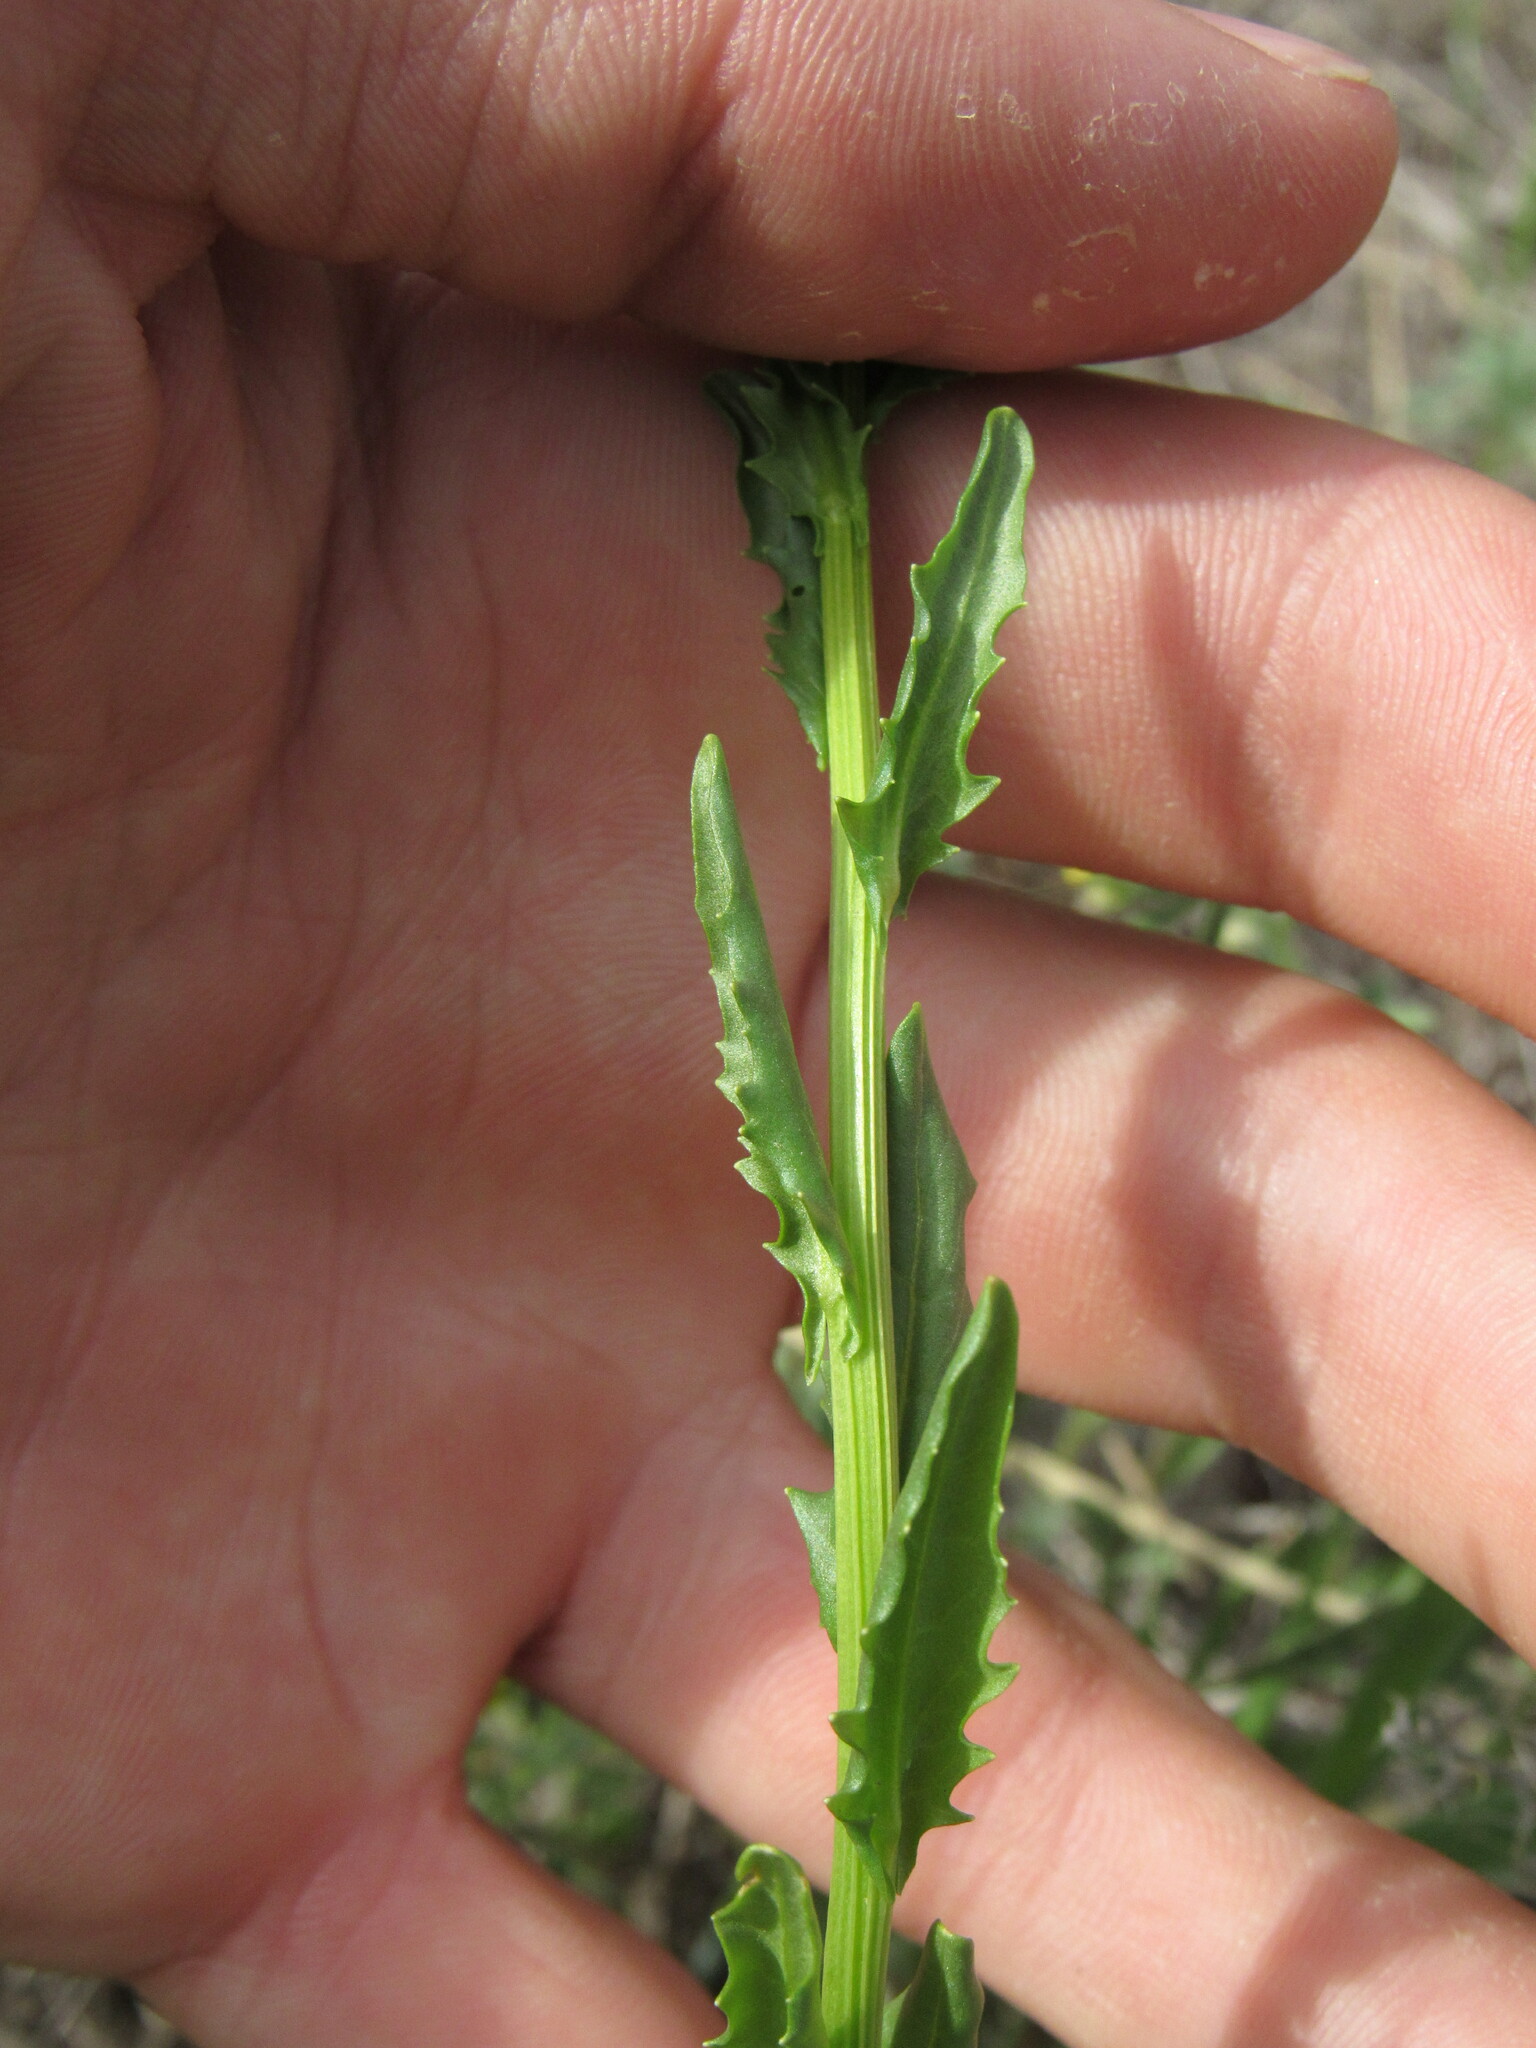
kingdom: Plantae
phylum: Tracheophyta
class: Magnoliopsida
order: Brassicales
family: Brassicaceae
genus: Thlaspi
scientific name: Thlaspi arvense
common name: Field pennycress
